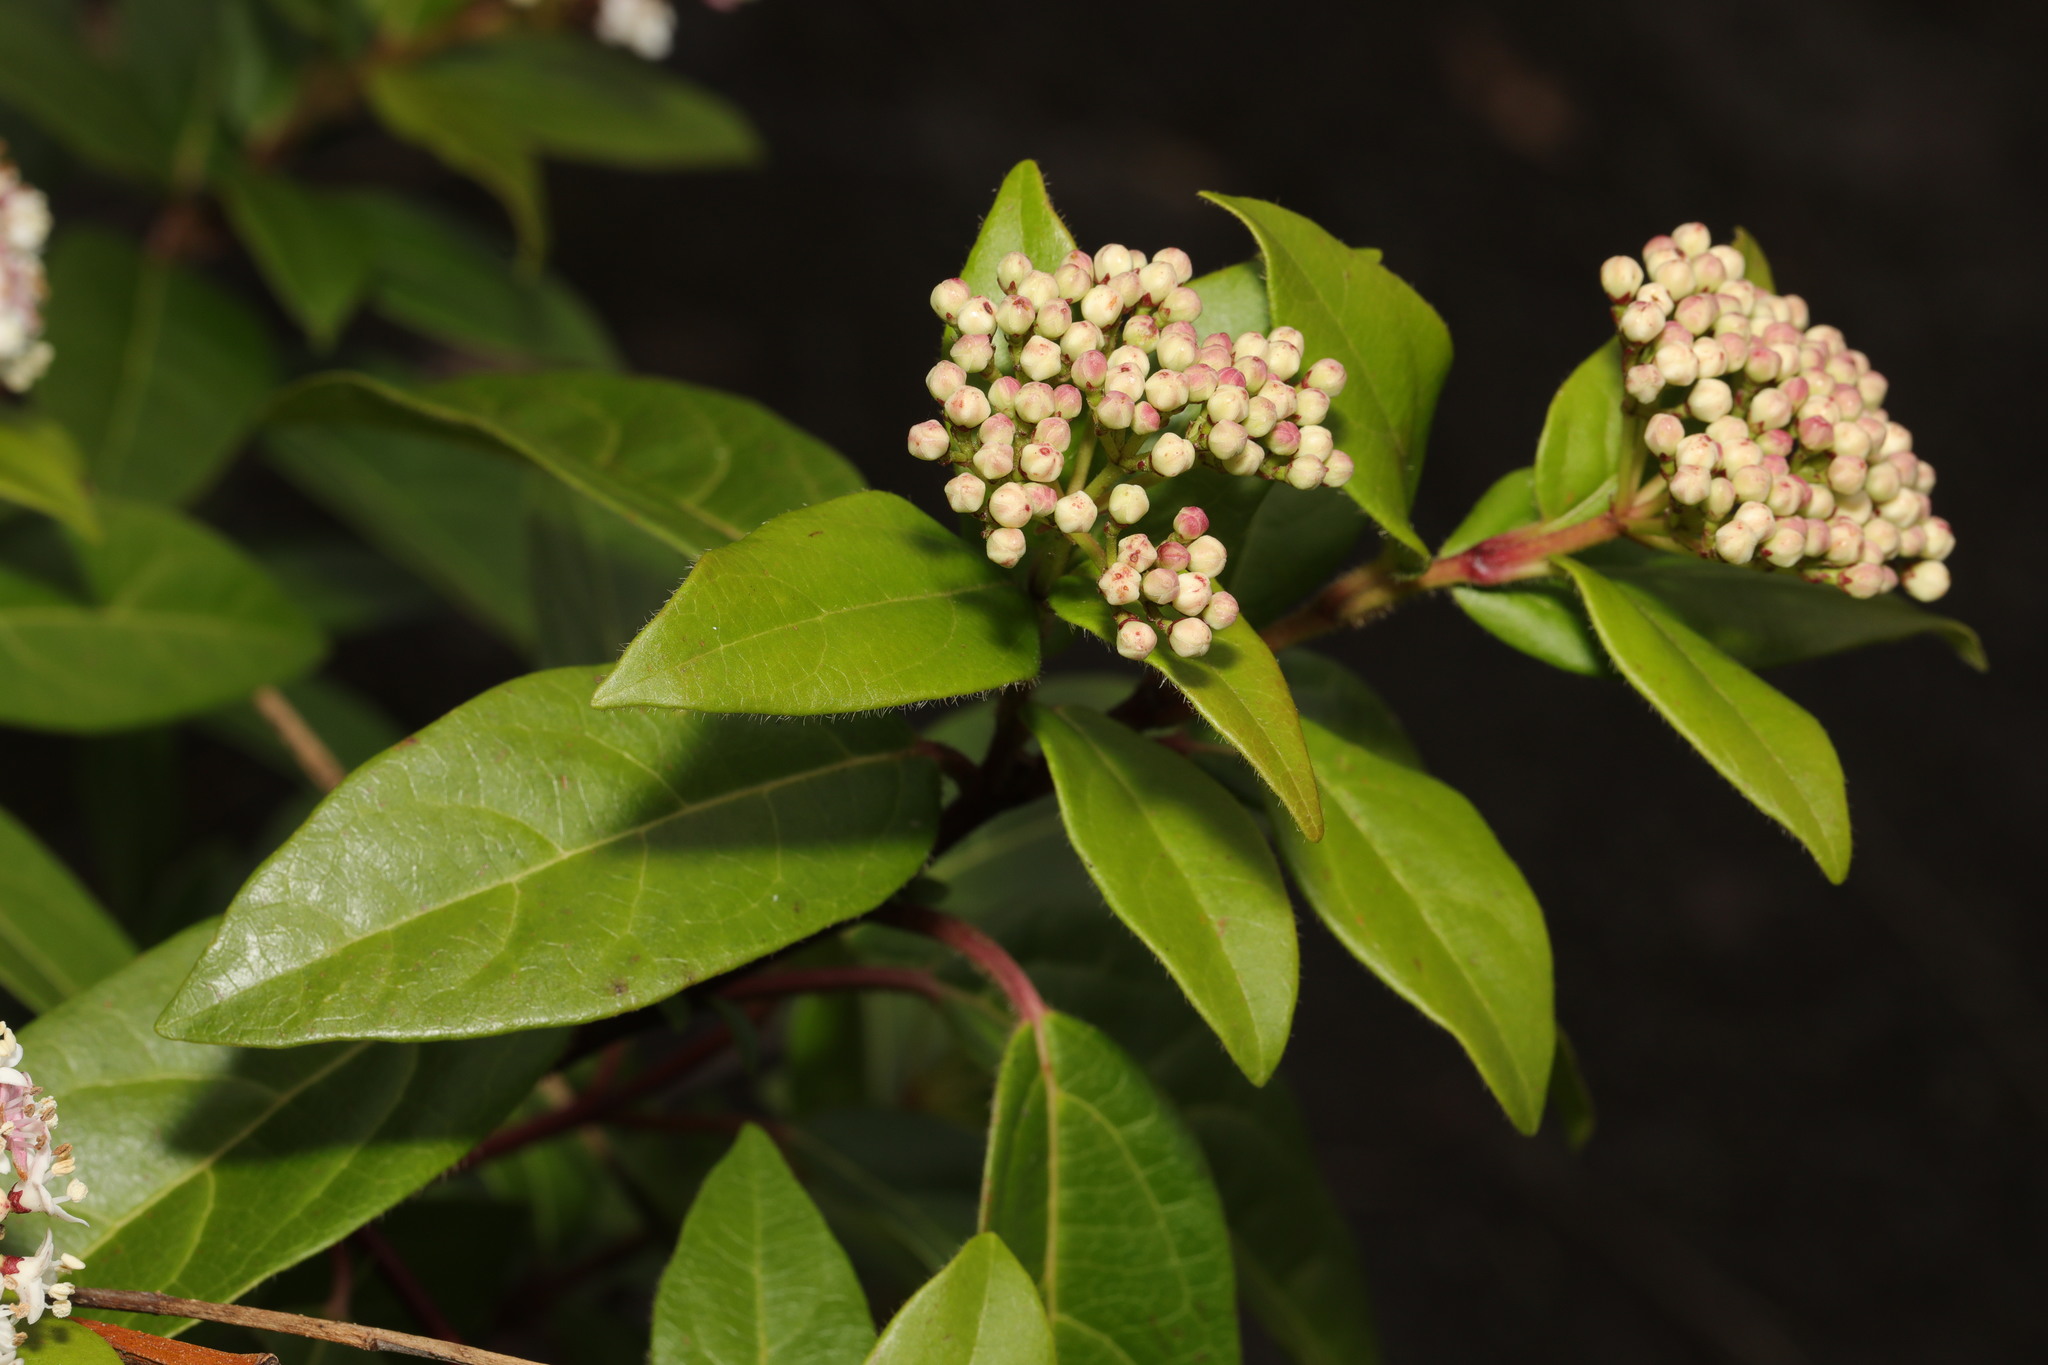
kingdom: Plantae
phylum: Tracheophyta
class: Magnoliopsida
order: Dipsacales
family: Viburnaceae
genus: Viburnum
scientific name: Viburnum tinus
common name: Laurustinus
